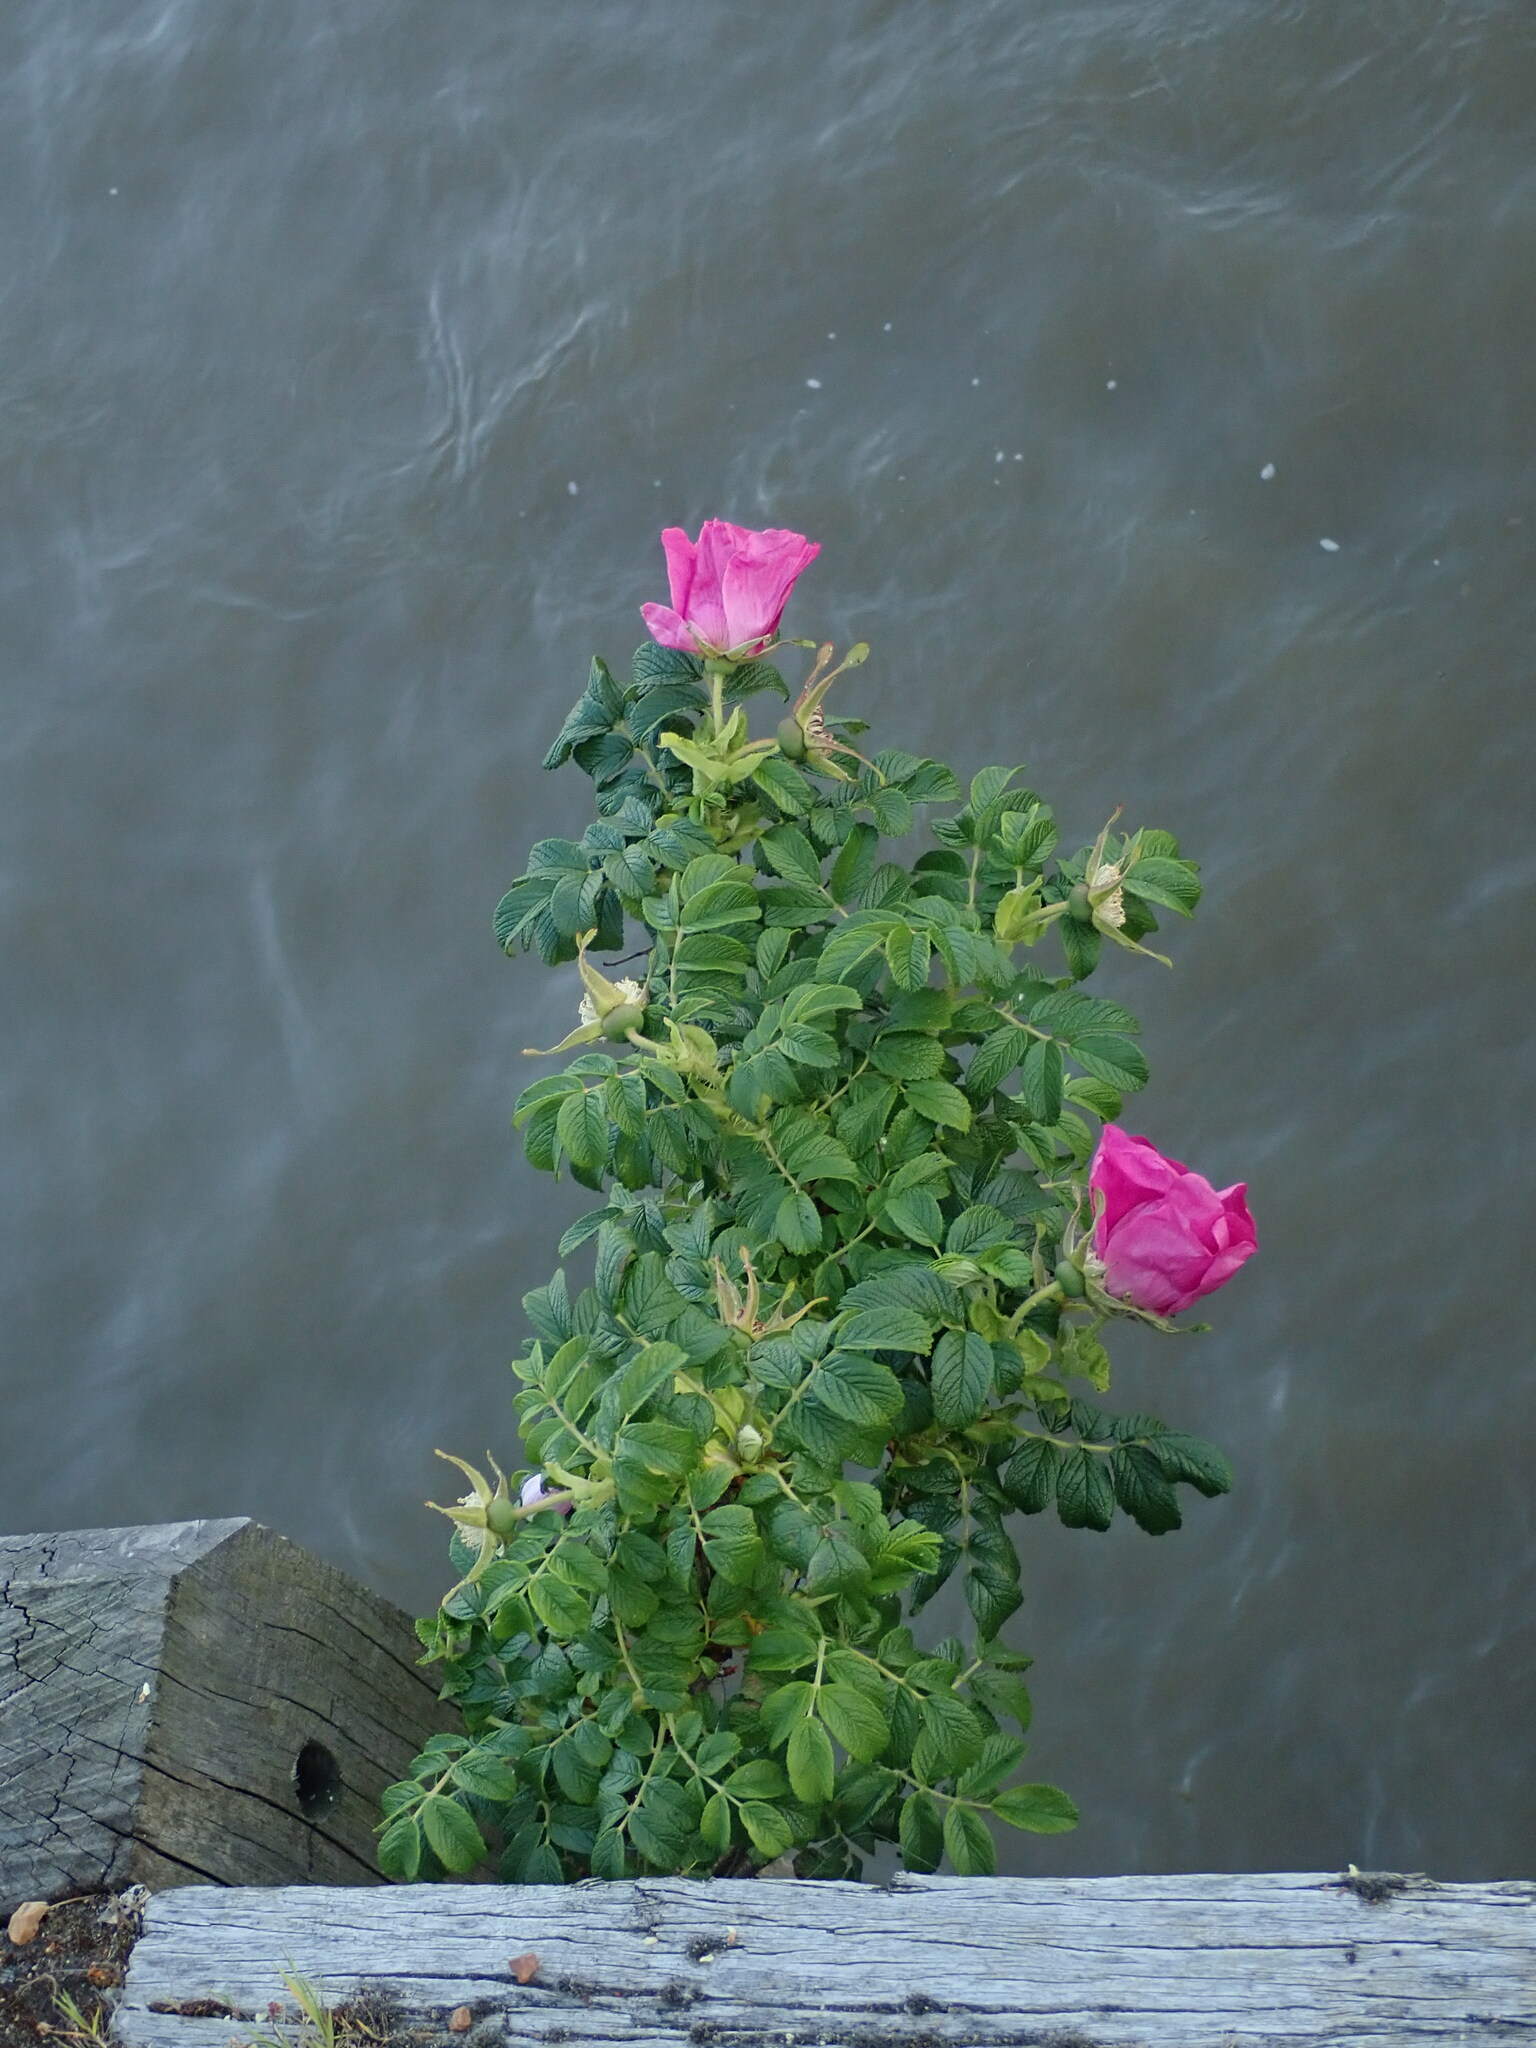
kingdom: Plantae
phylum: Tracheophyta
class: Magnoliopsida
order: Rosales
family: Rosaceae
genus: Rosa
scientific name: Rosa rugosa
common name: Japanese rose
